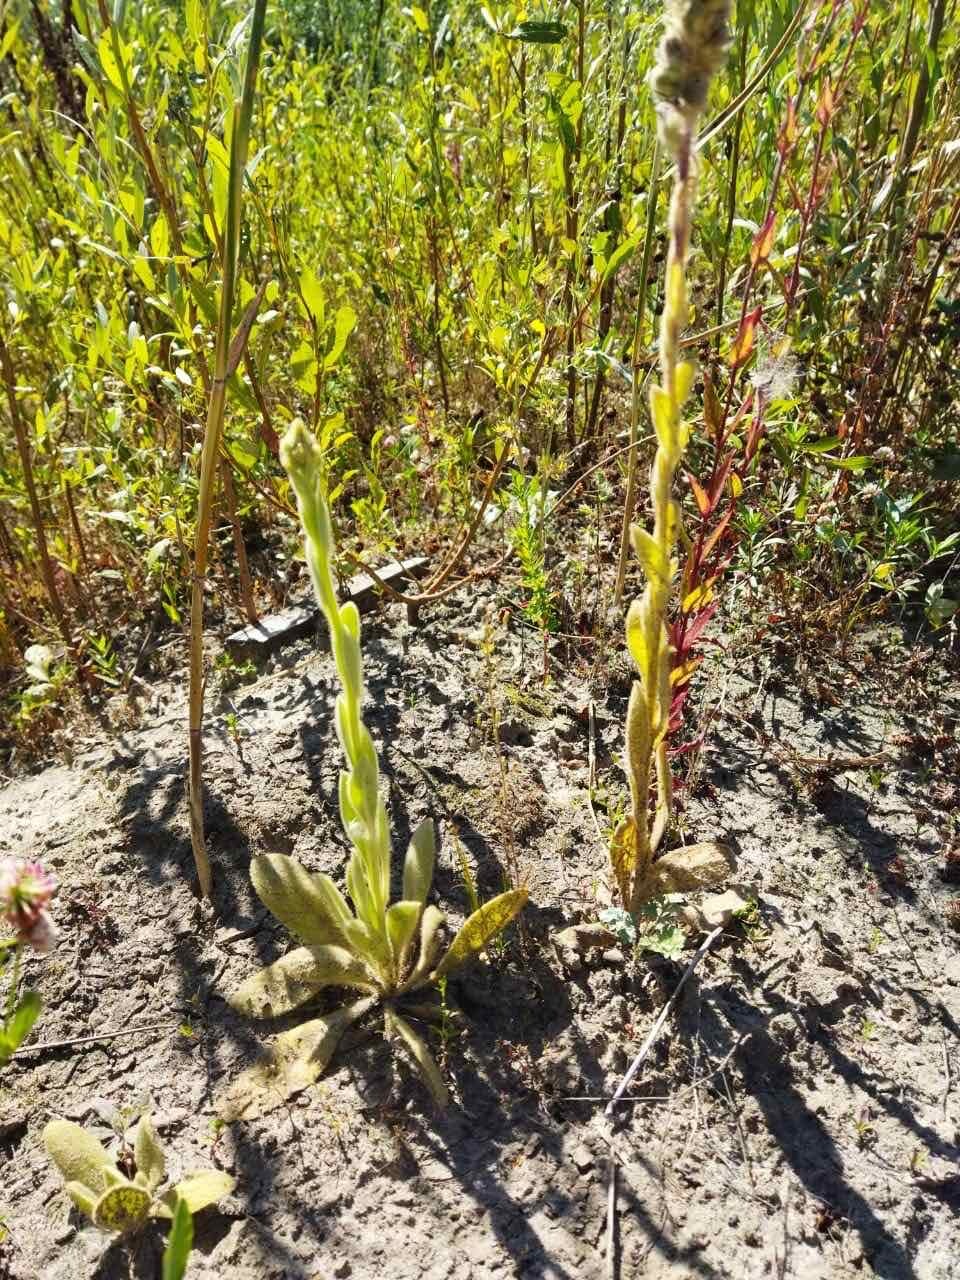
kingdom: Plantae
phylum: Tracheophyta
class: Magnoliopsida
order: Lamiales
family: Scrophulariaceae
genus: Verbascum
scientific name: Verbascum thapsus
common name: Common mullein
